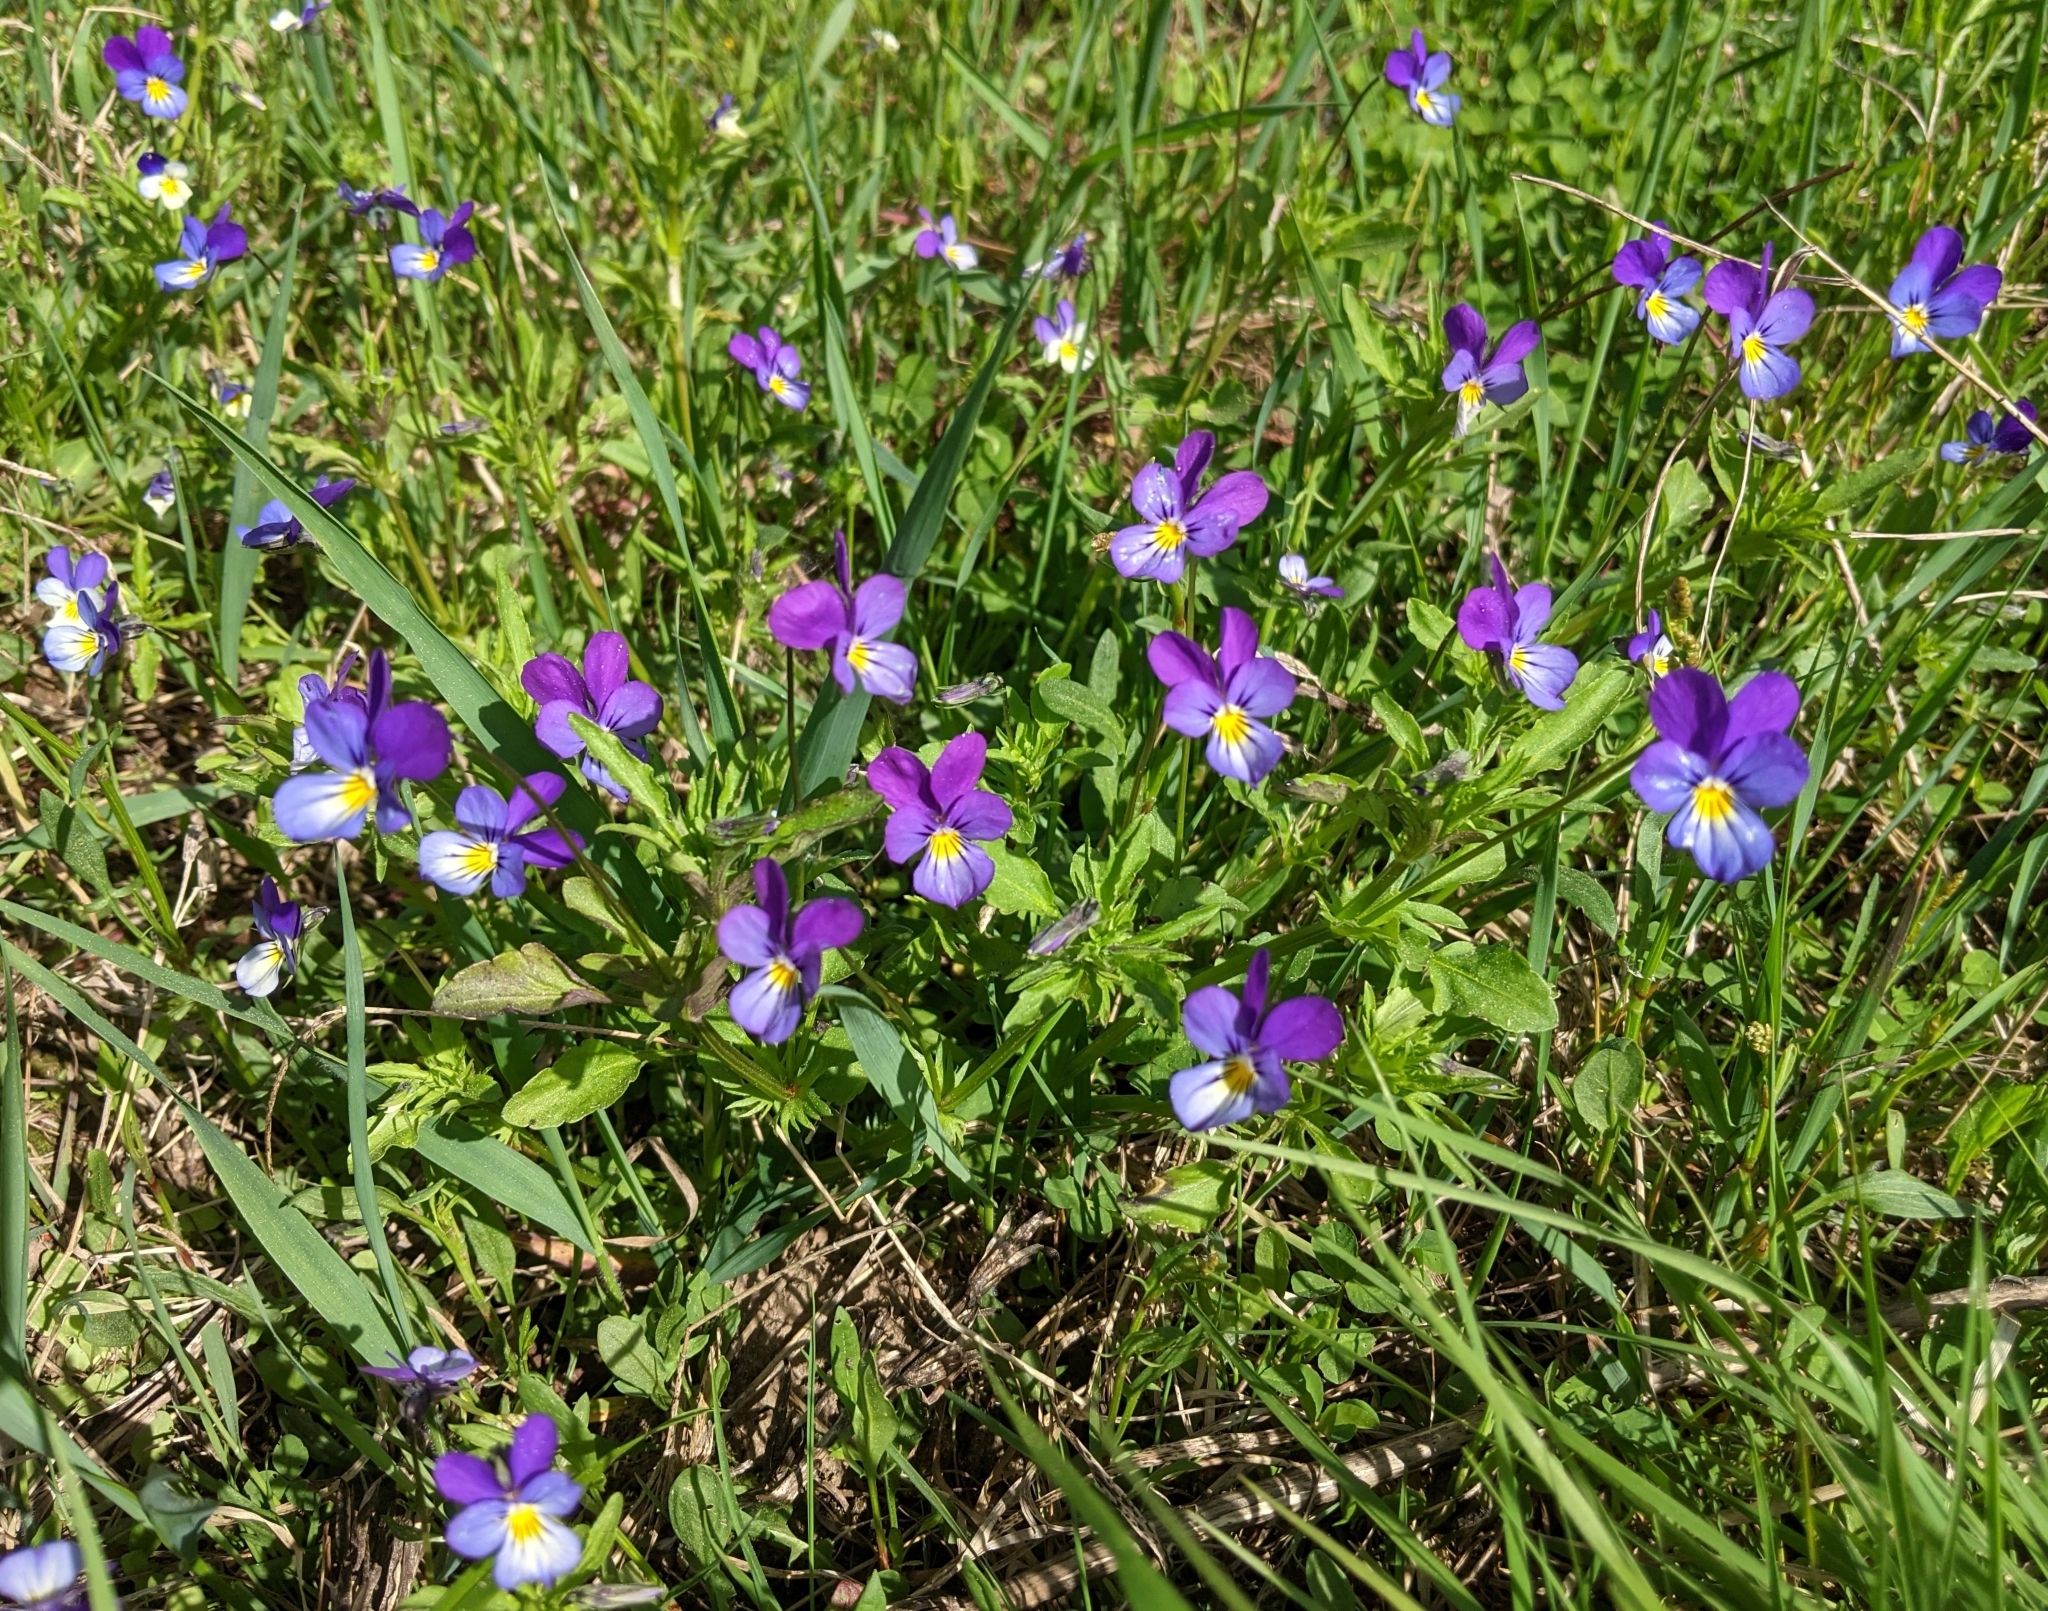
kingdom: Plantae
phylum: Tracheophyta
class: Magnoliopsida
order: Malpighiales
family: Violaceae
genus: Viola
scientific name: Viola tricolor
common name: Pansy
